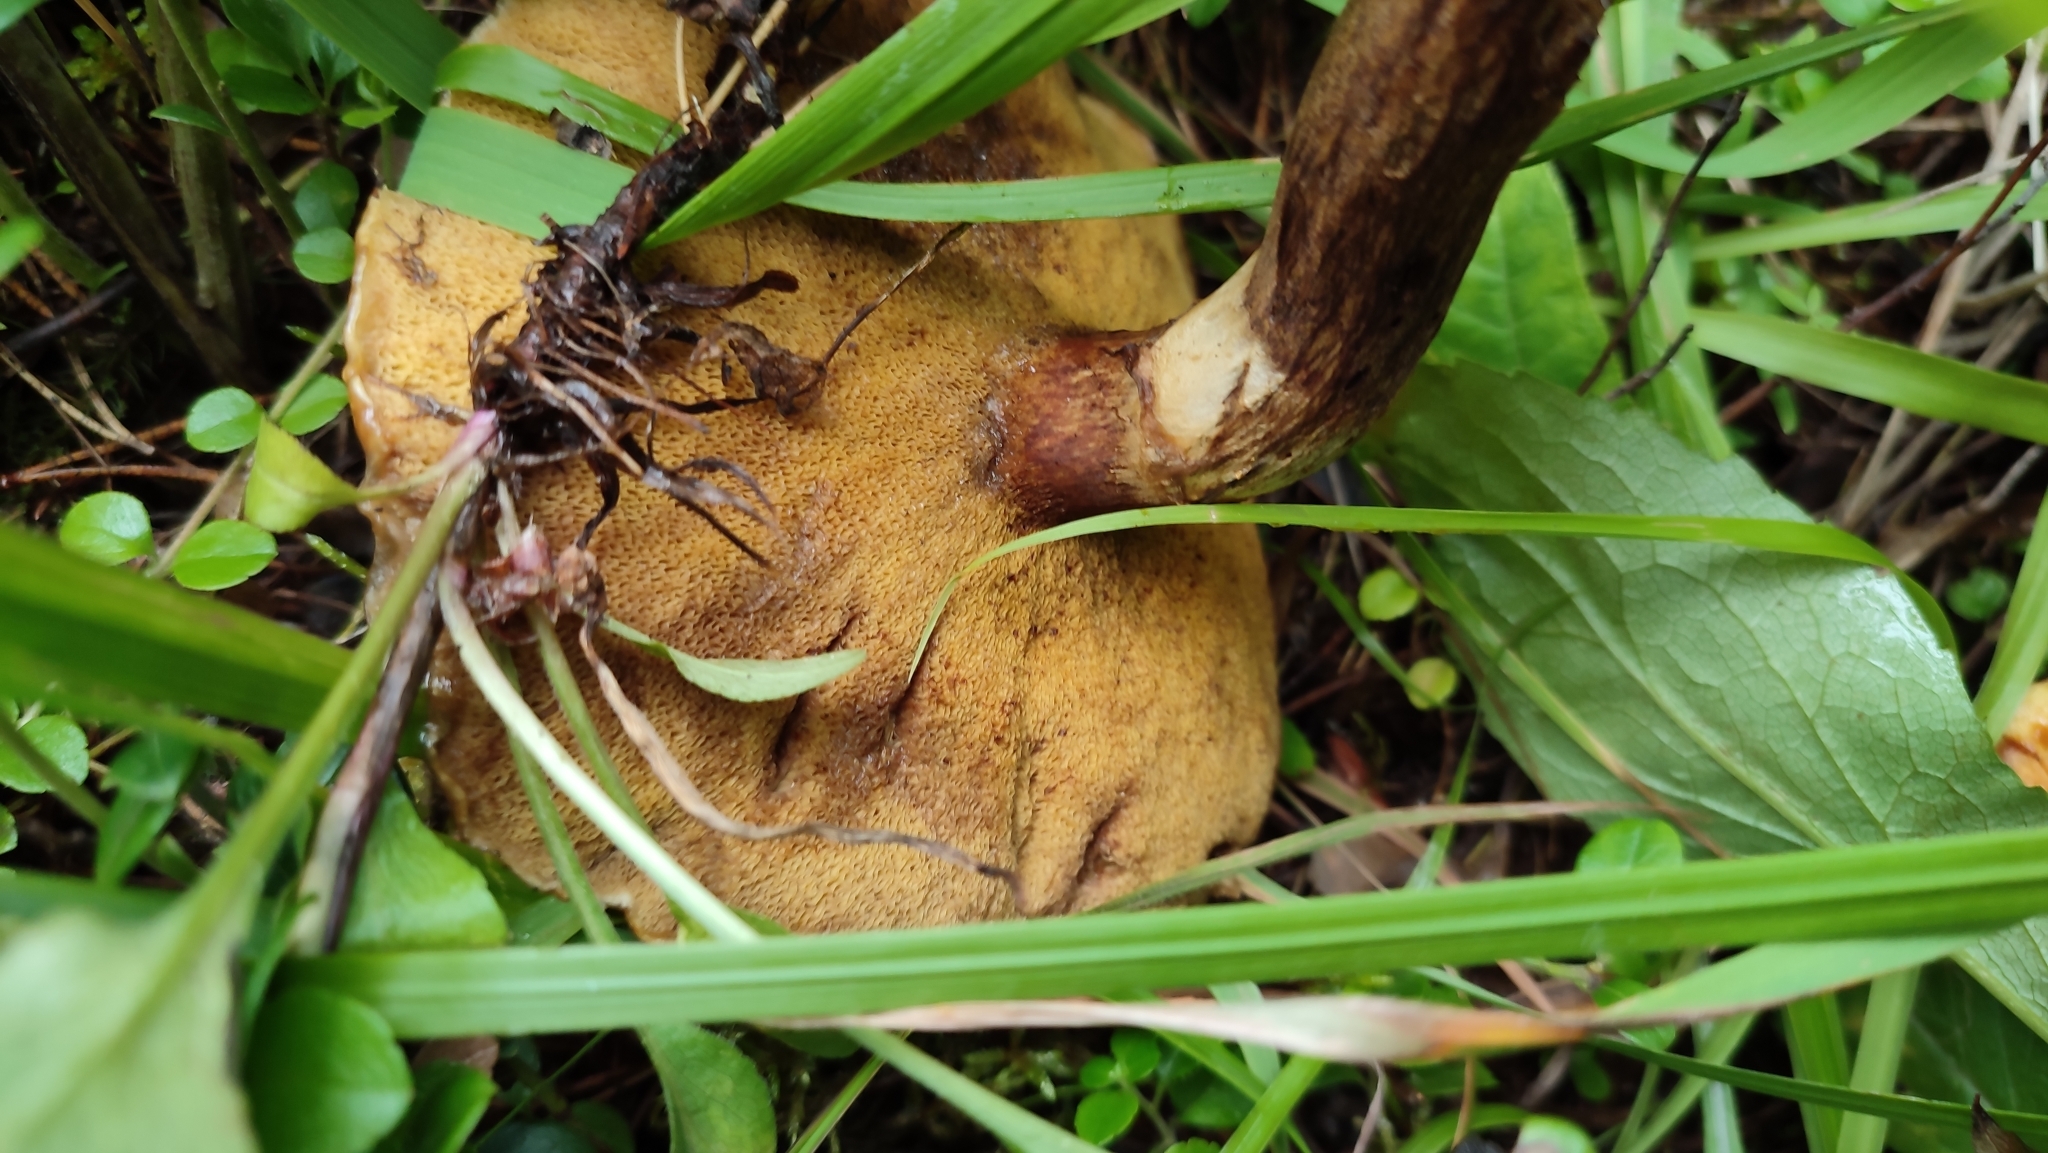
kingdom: Fungi
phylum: Basidiomycota
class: Agaricomycetes
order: Boletales
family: Suillaceae
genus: Suillus
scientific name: Suillus grevillei
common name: Larch bolete
